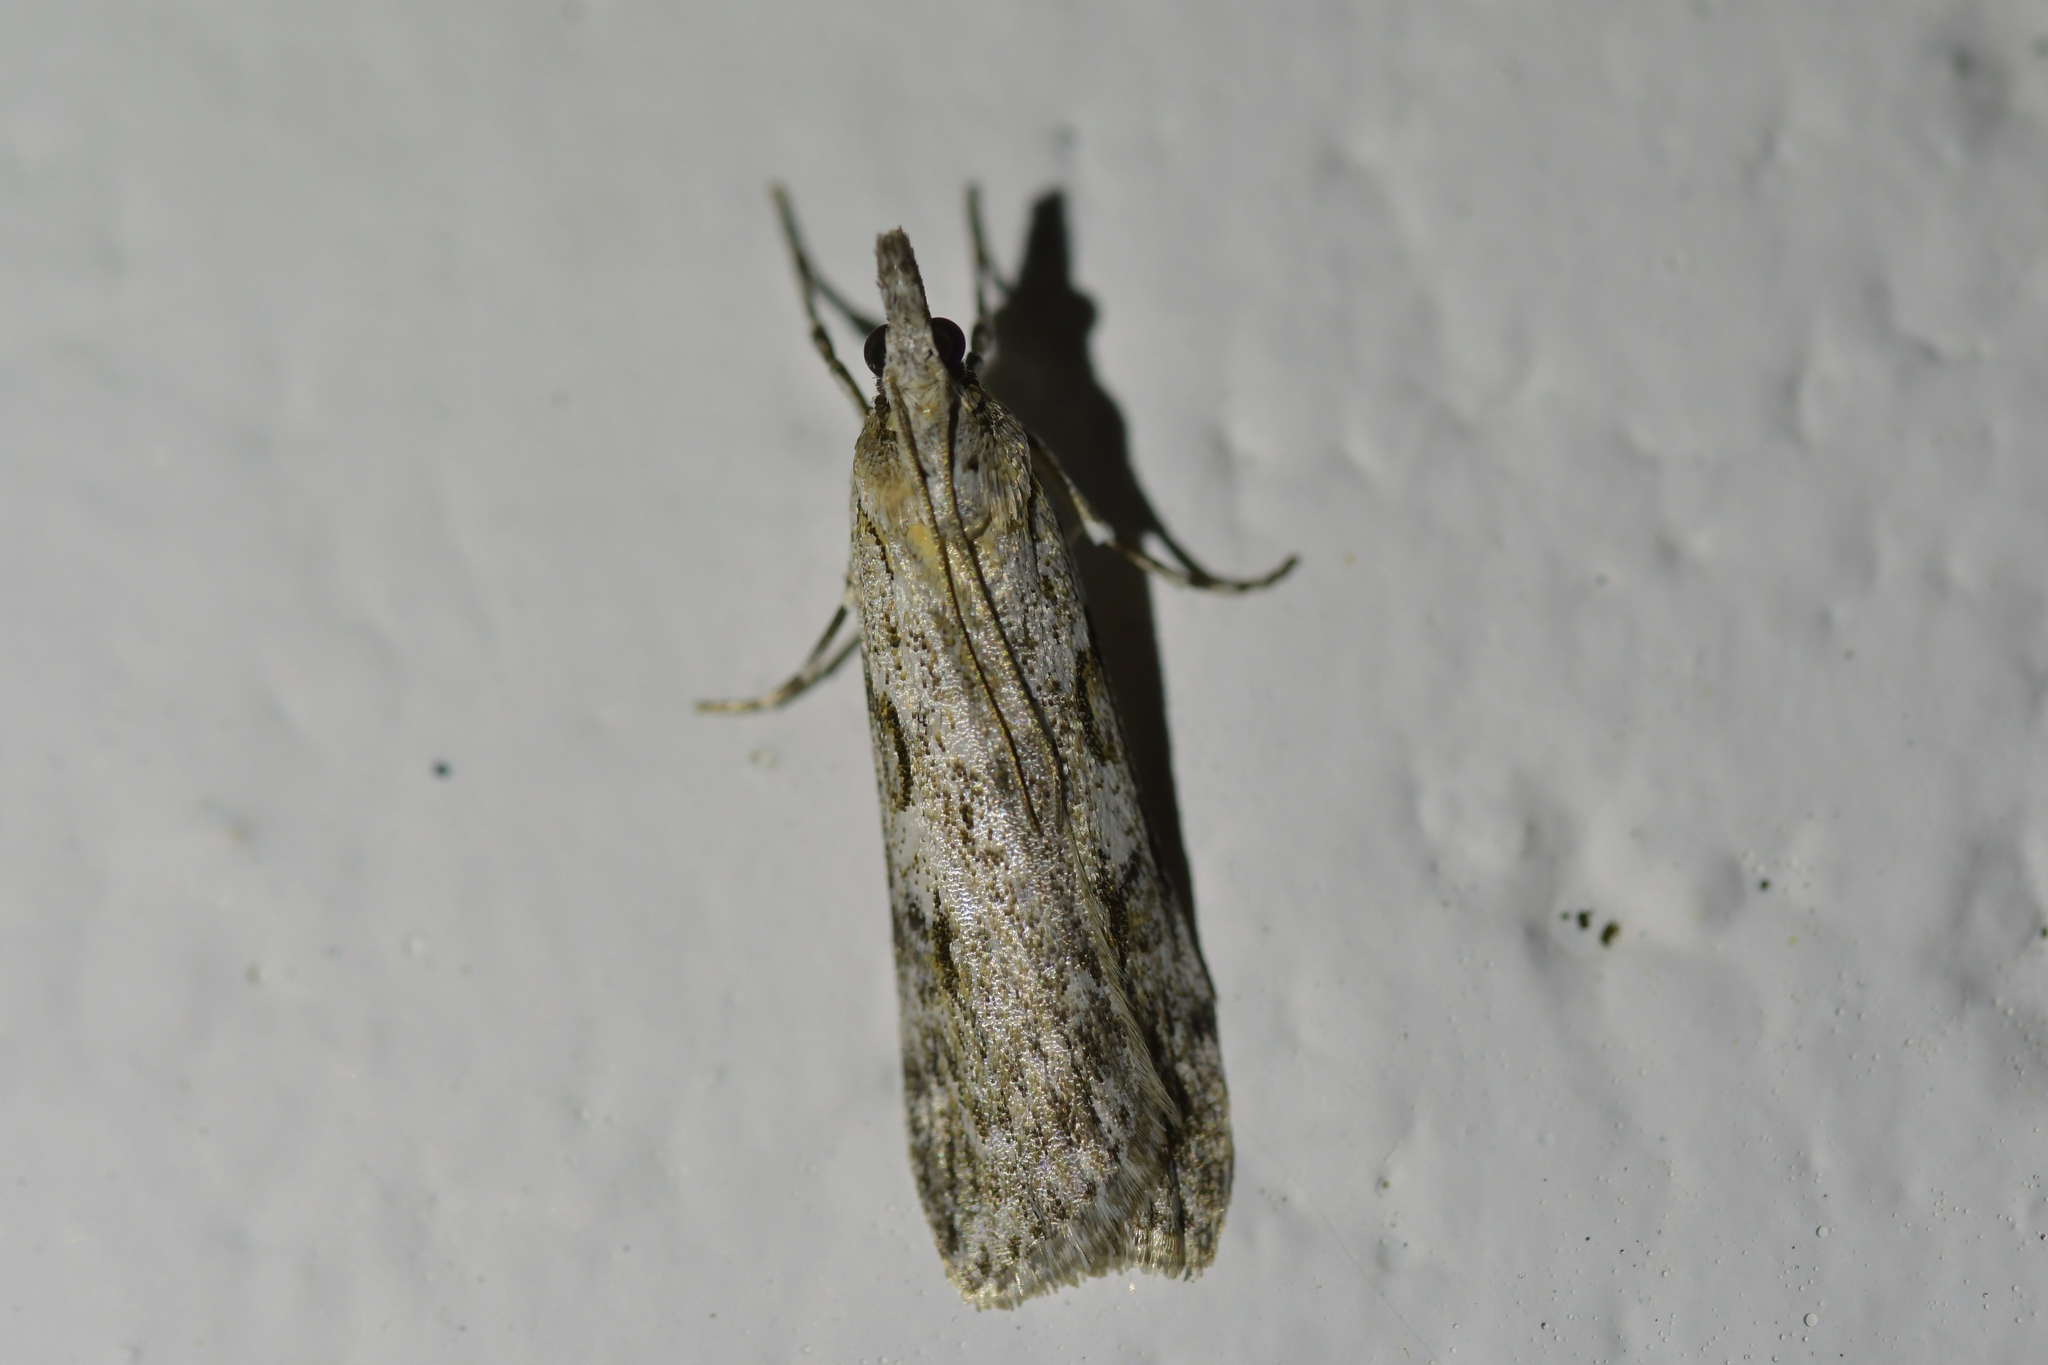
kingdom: Animalia
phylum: Arthropoda
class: Insecta
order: Lepidoptera
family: Crambidae
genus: Scoparia
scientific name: Scoparia halopis
